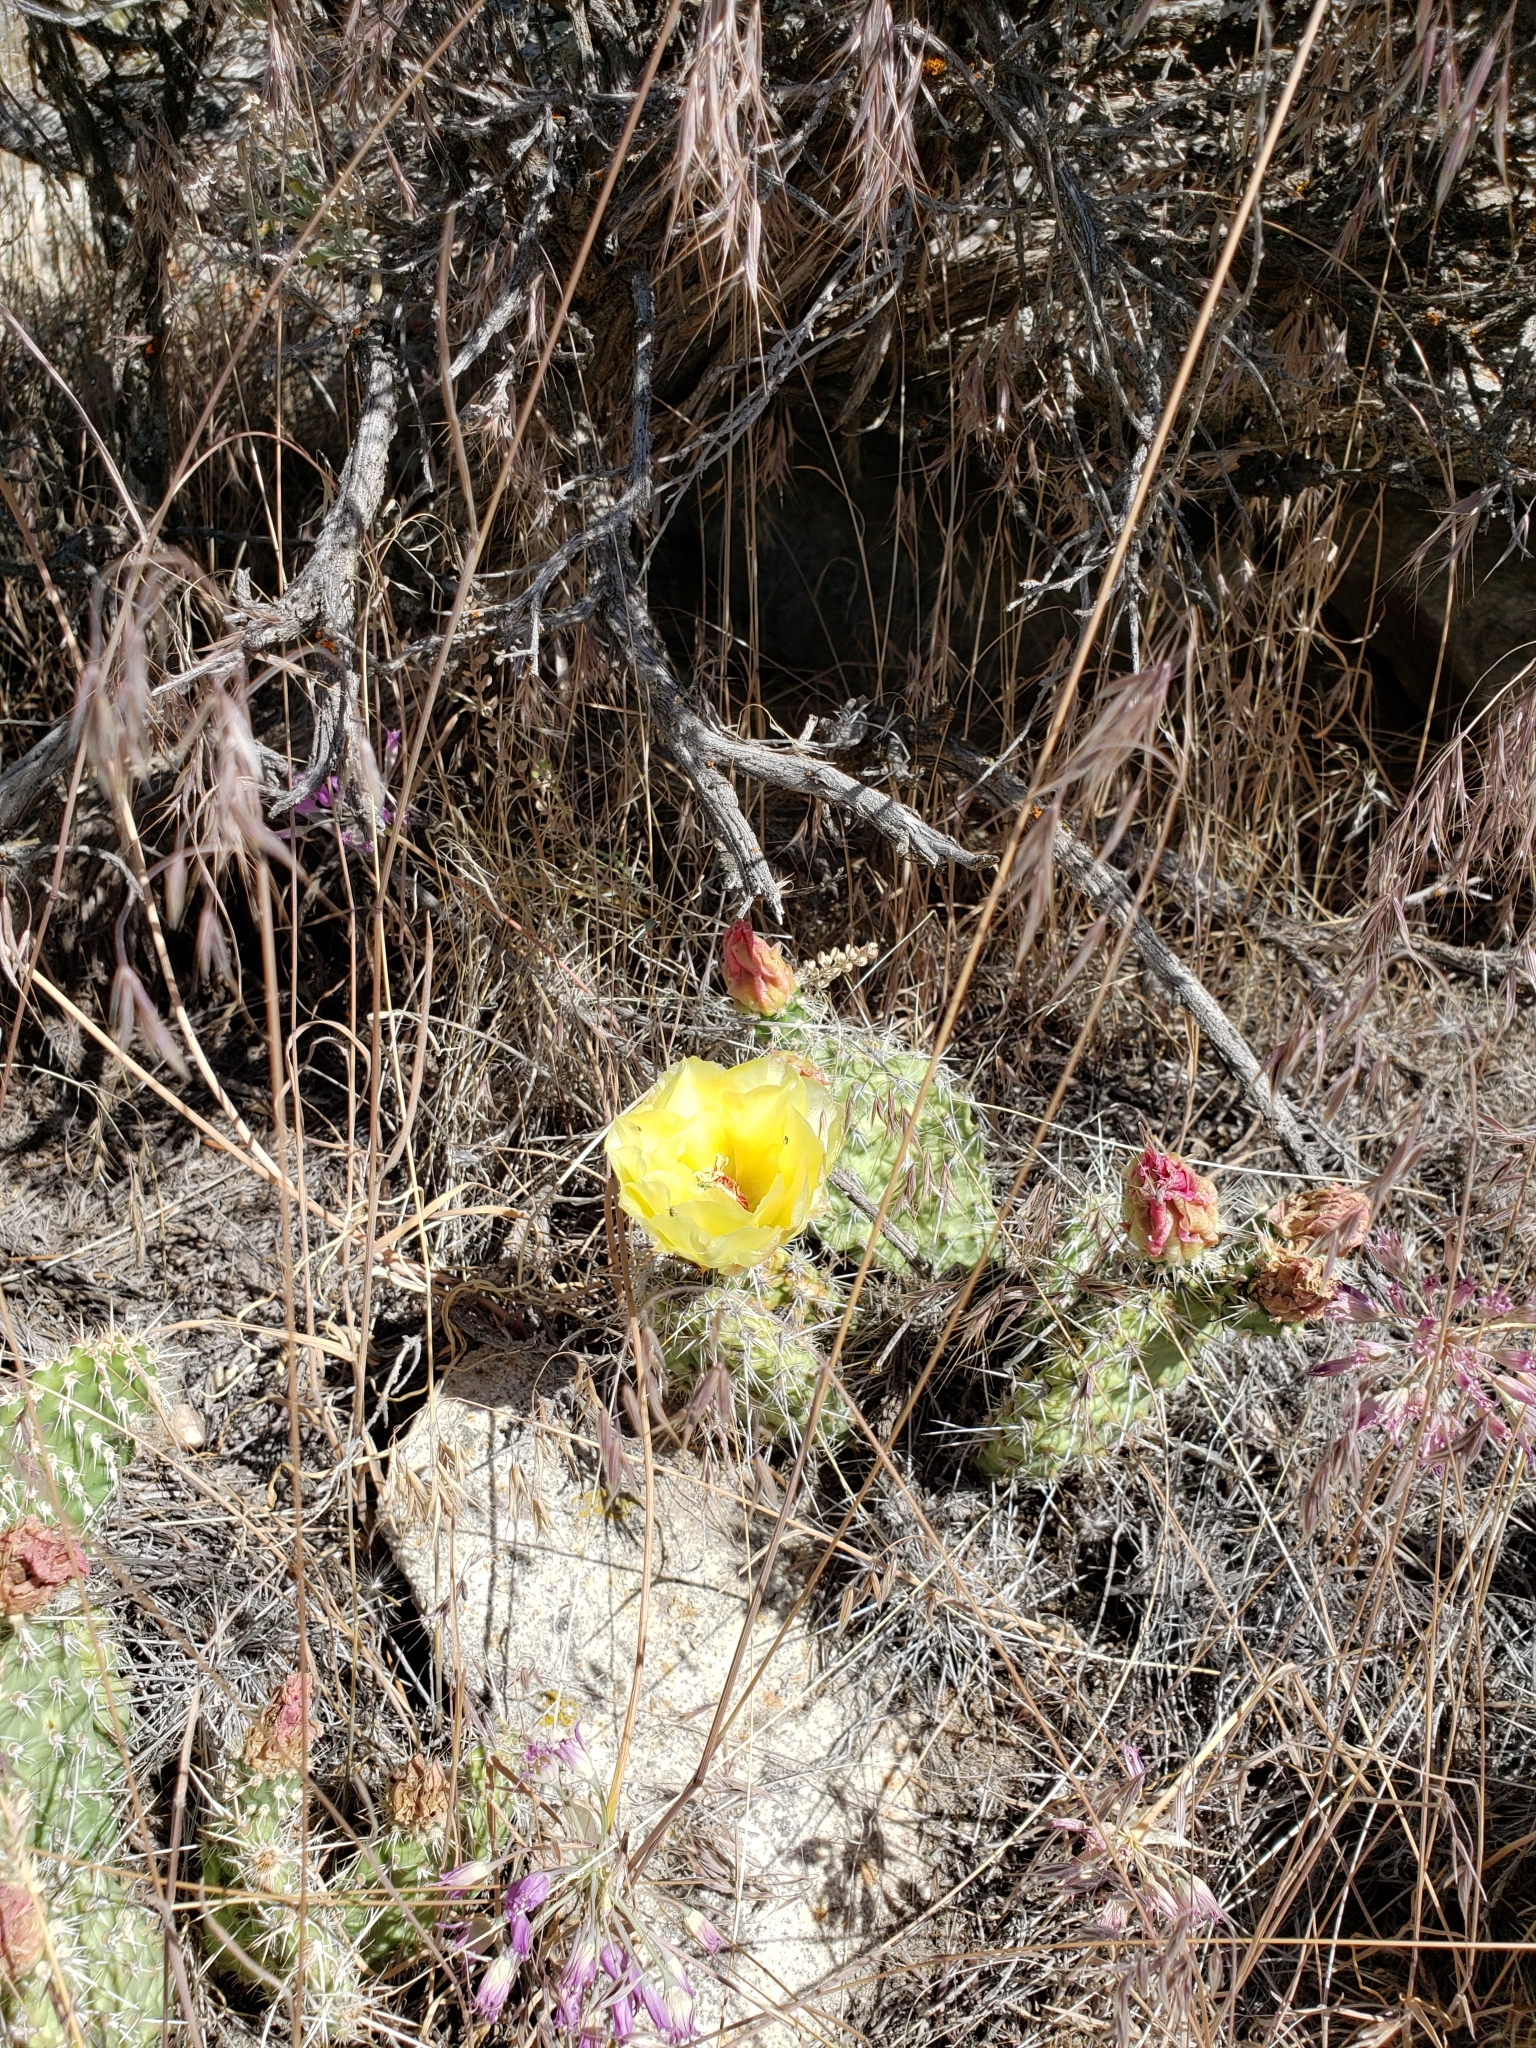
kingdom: Plantae
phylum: Tracheophyta
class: Magnoliopsida
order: Caryophyllales
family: Cactaceae
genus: Opuntia
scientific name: Opuntia polyacantha
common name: Plains prickly-pear
